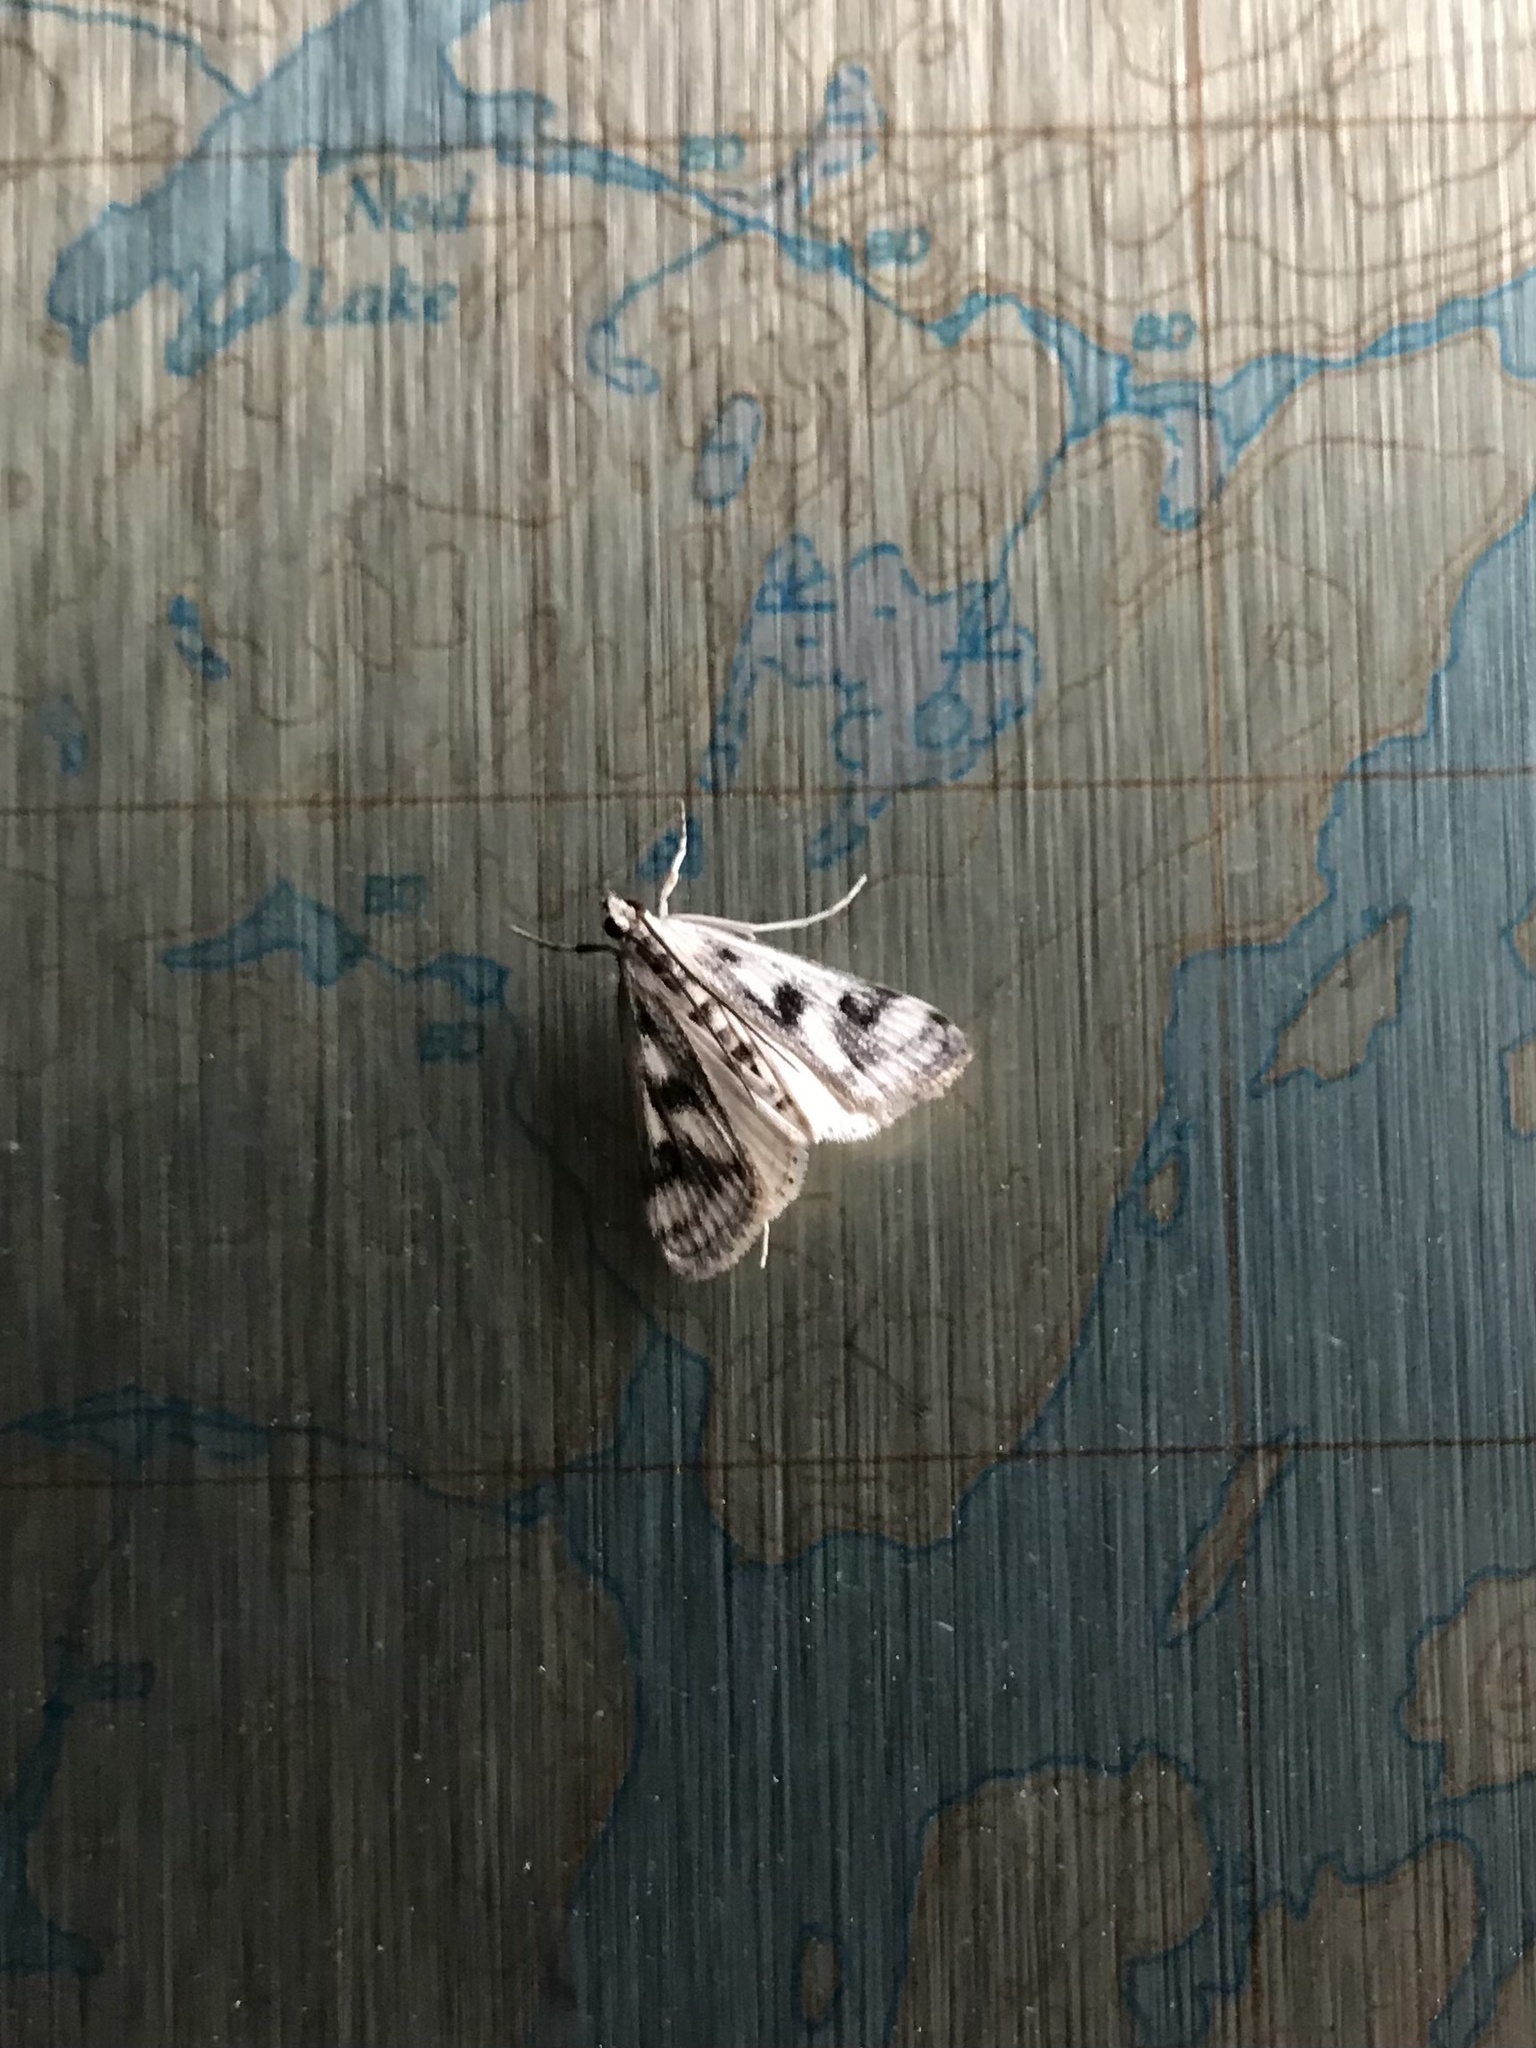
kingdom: Animalia
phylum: Arthropoda
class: Insecta
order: Lepidoptera
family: Crambidae
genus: Parapoynx
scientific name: Parapoynx maculalis
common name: Polymorphic pondweed moth
